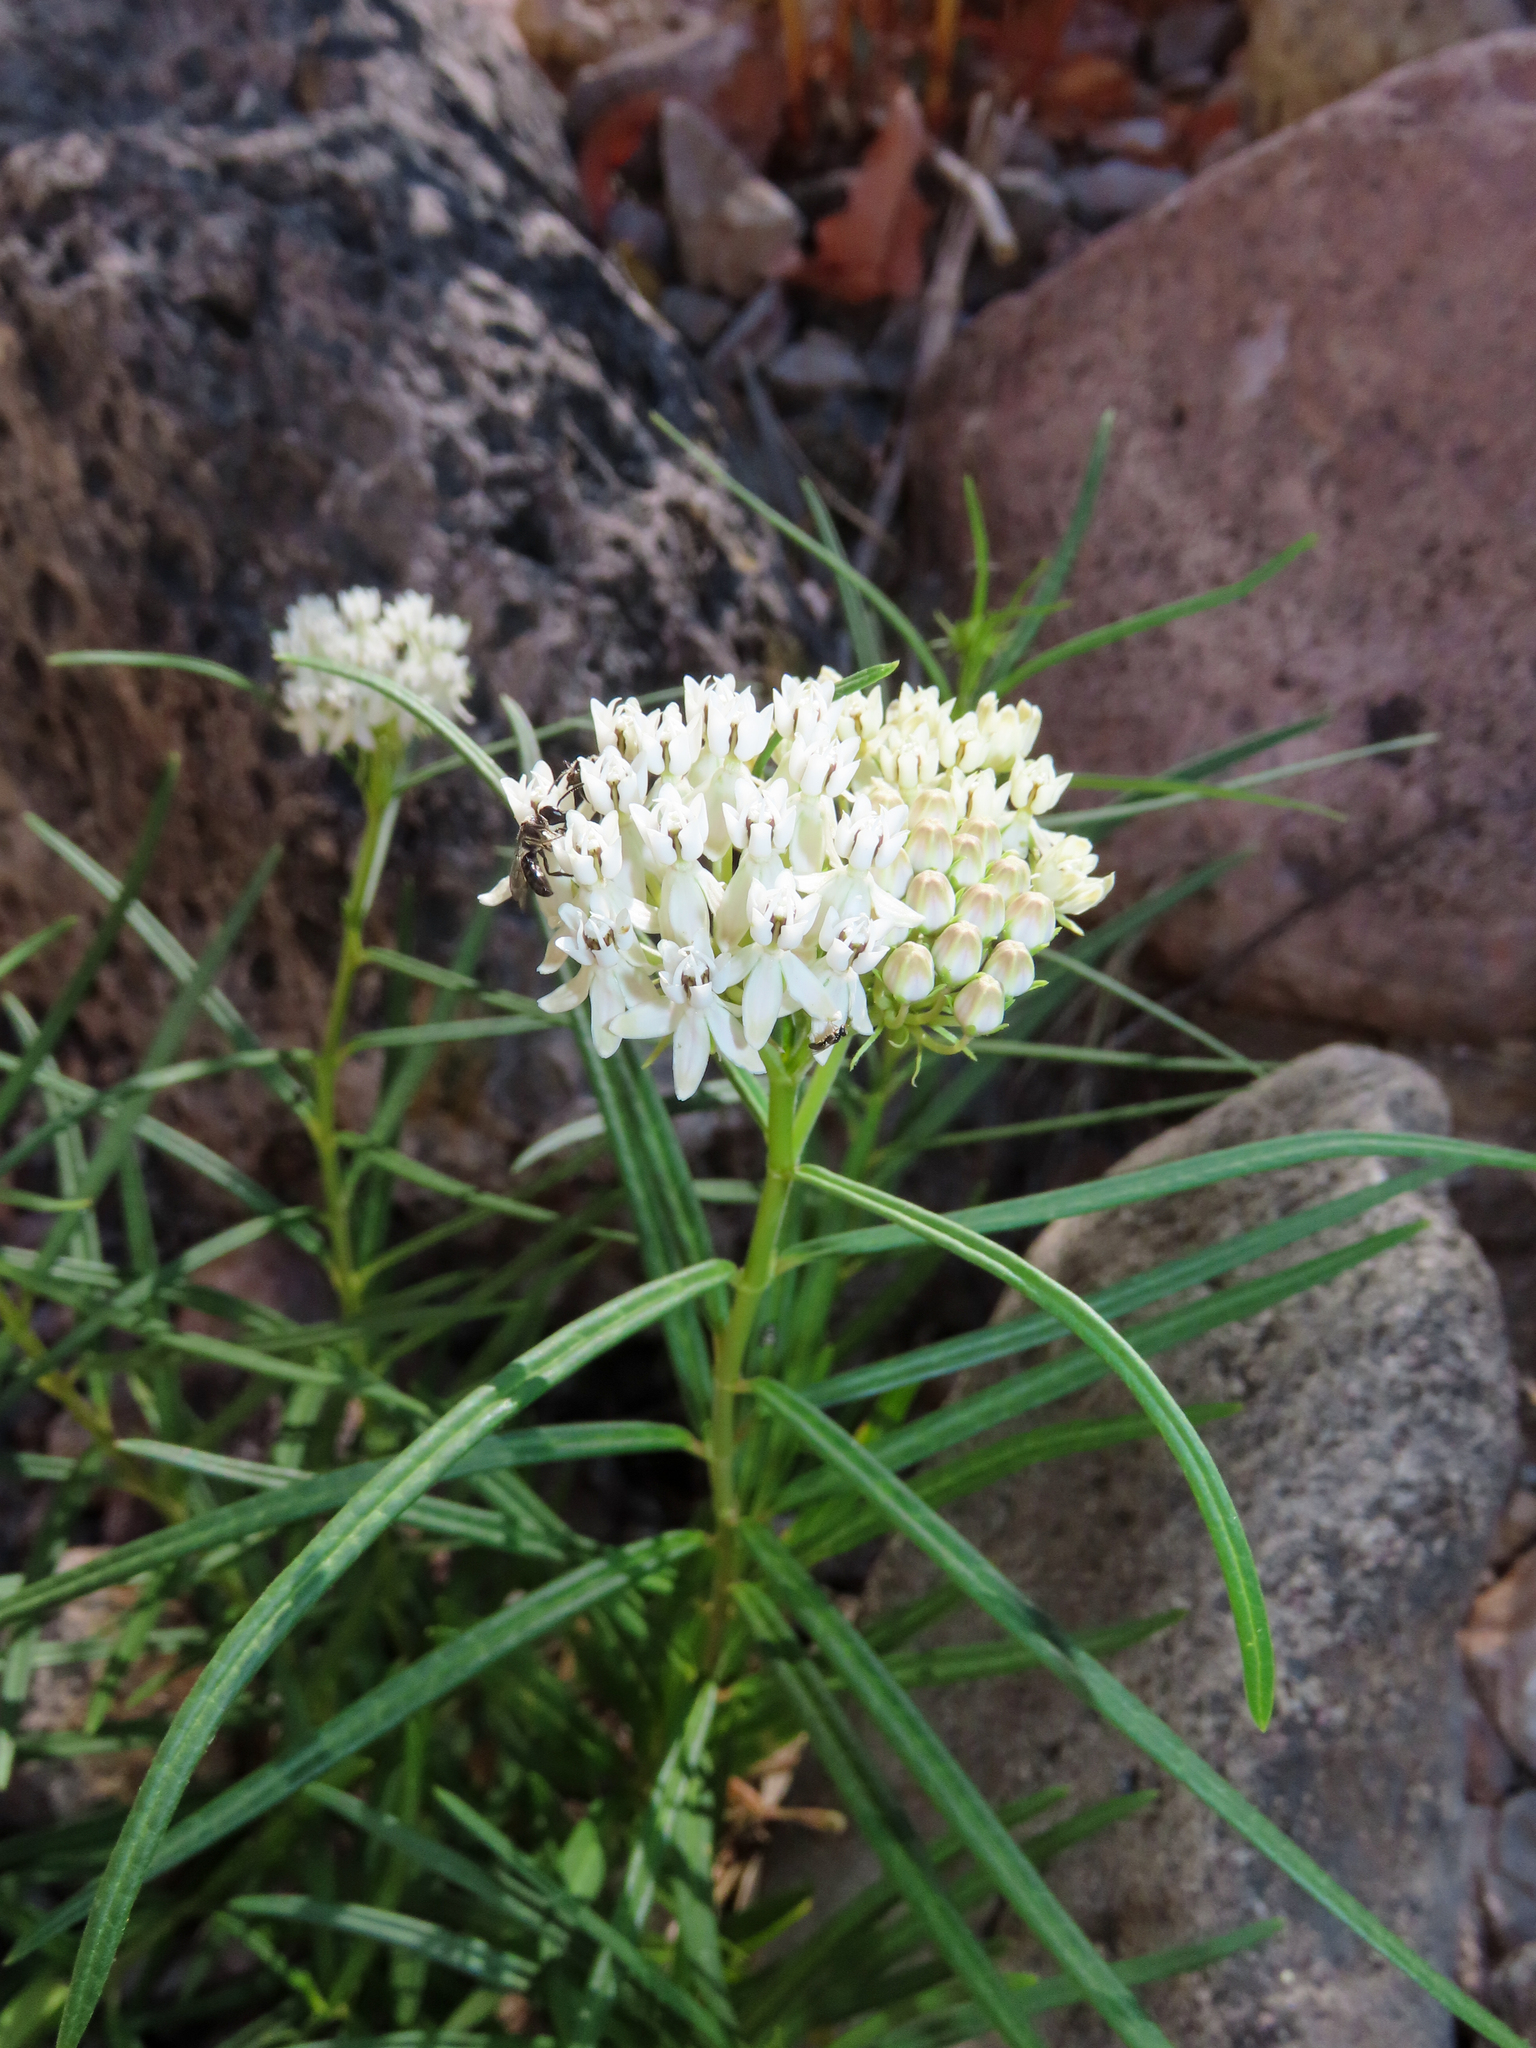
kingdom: Plantae
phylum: Tracheophyta
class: Magnoliopsida
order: Gentianales
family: Apocynaceae
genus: Asclepias
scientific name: Asclepias angustifolia
